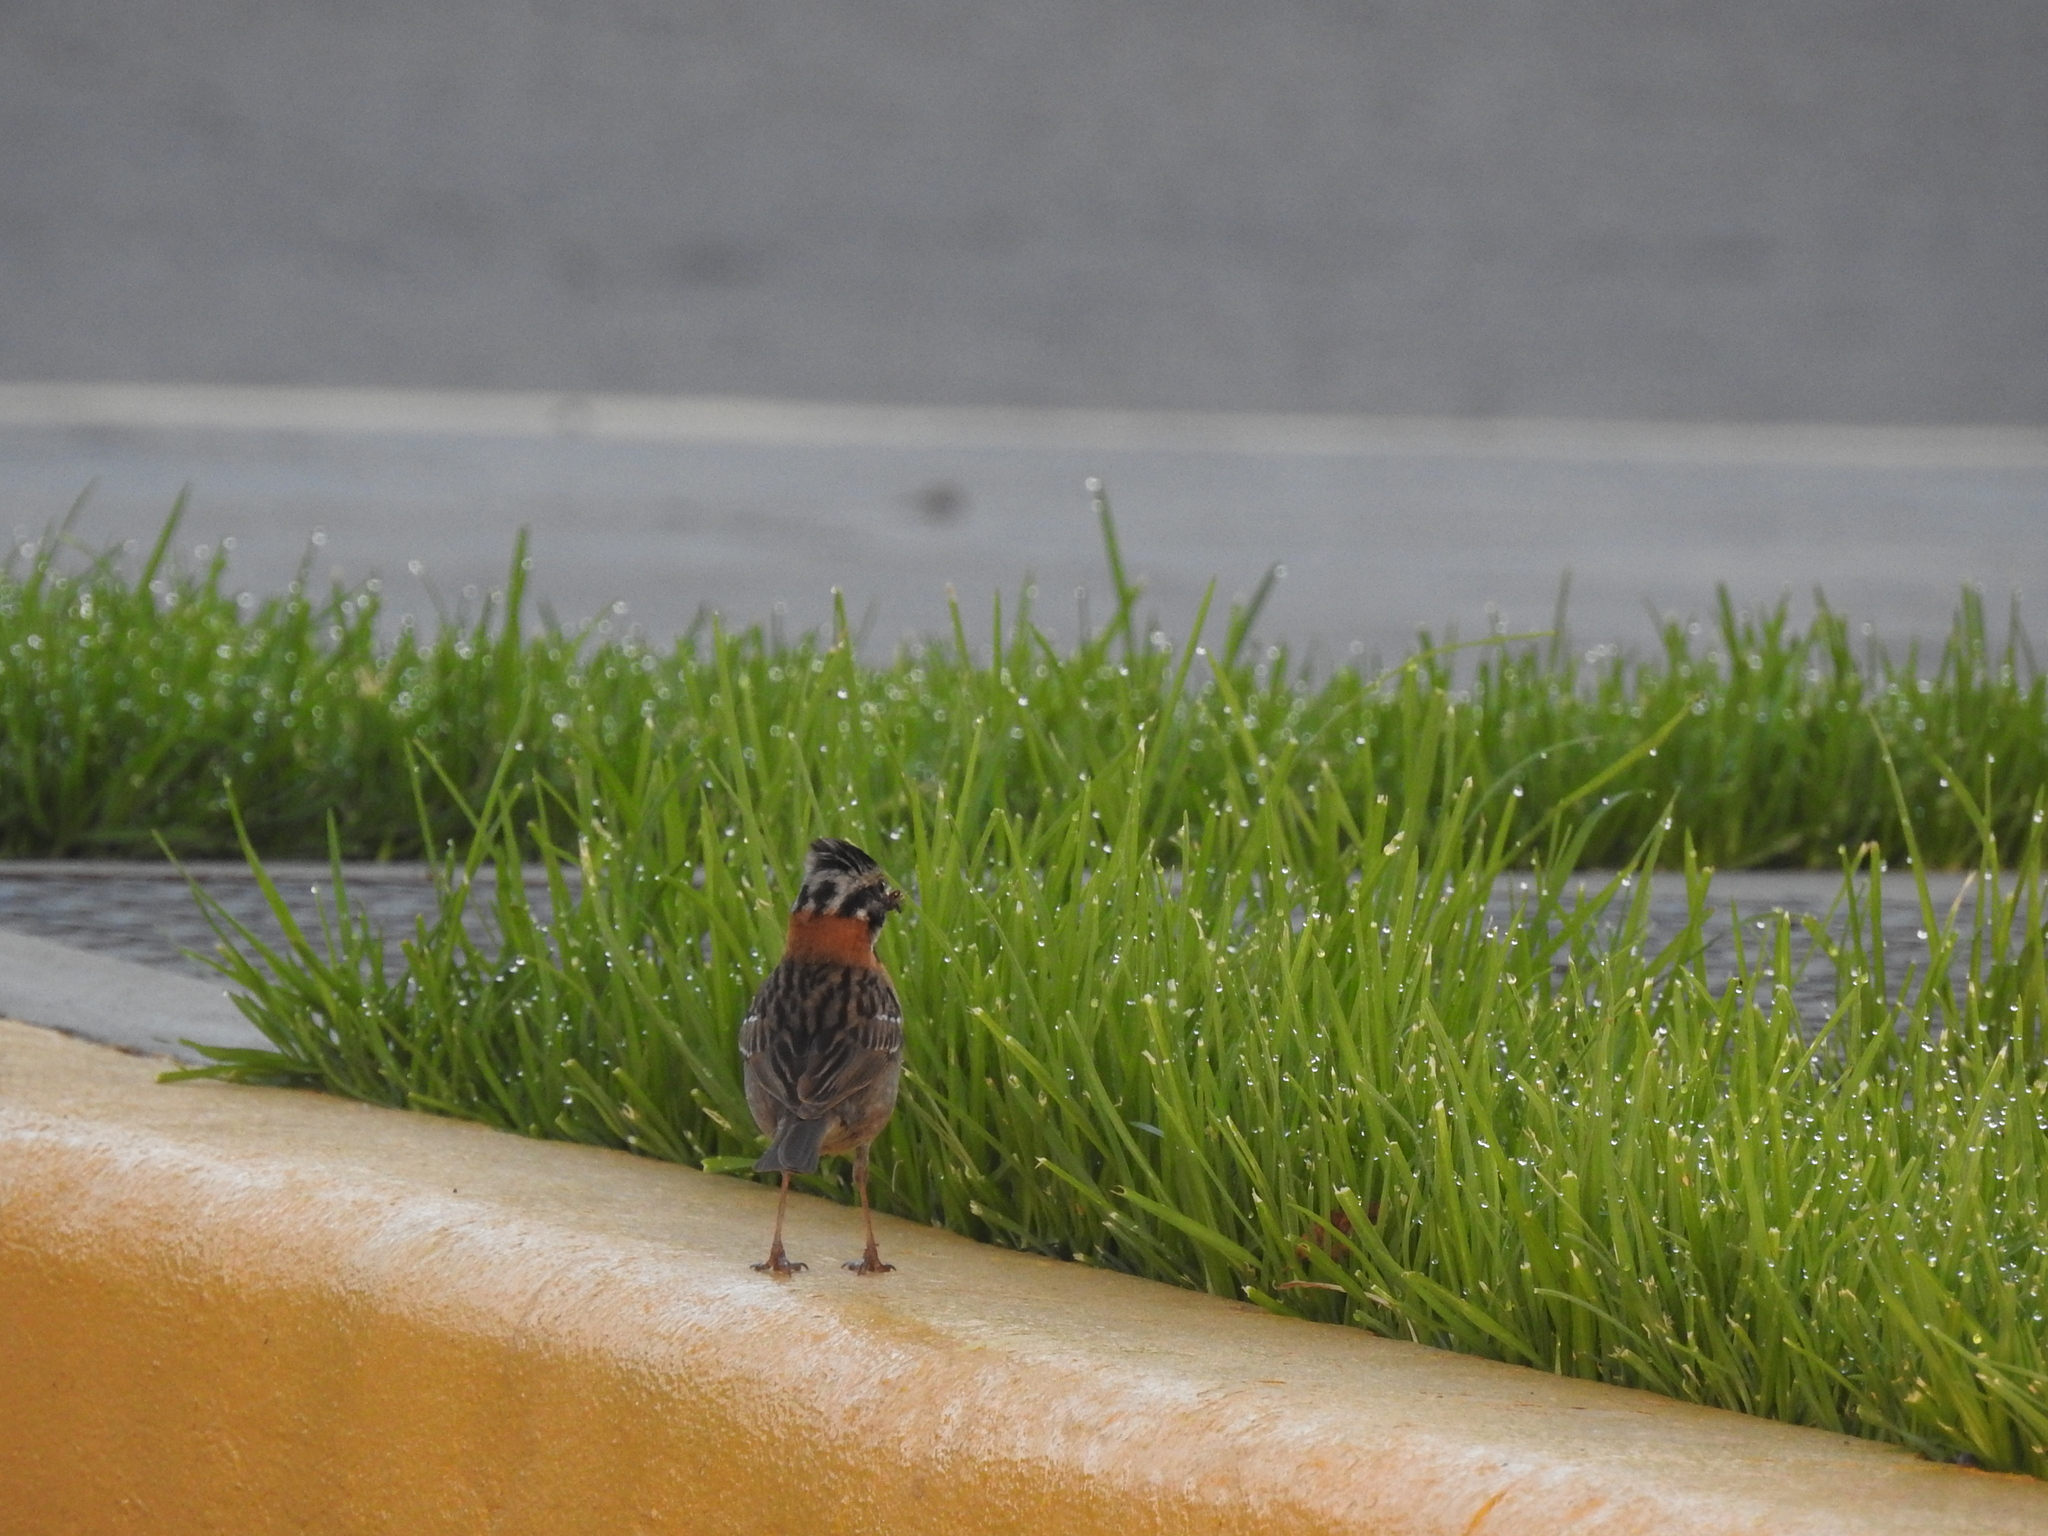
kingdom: Animalia
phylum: Chordata
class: Aves
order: Passeriformes
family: Passerellidae
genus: Zonotrichia
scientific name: Zonotrichia capensis
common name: Rufous-collared sparrow
